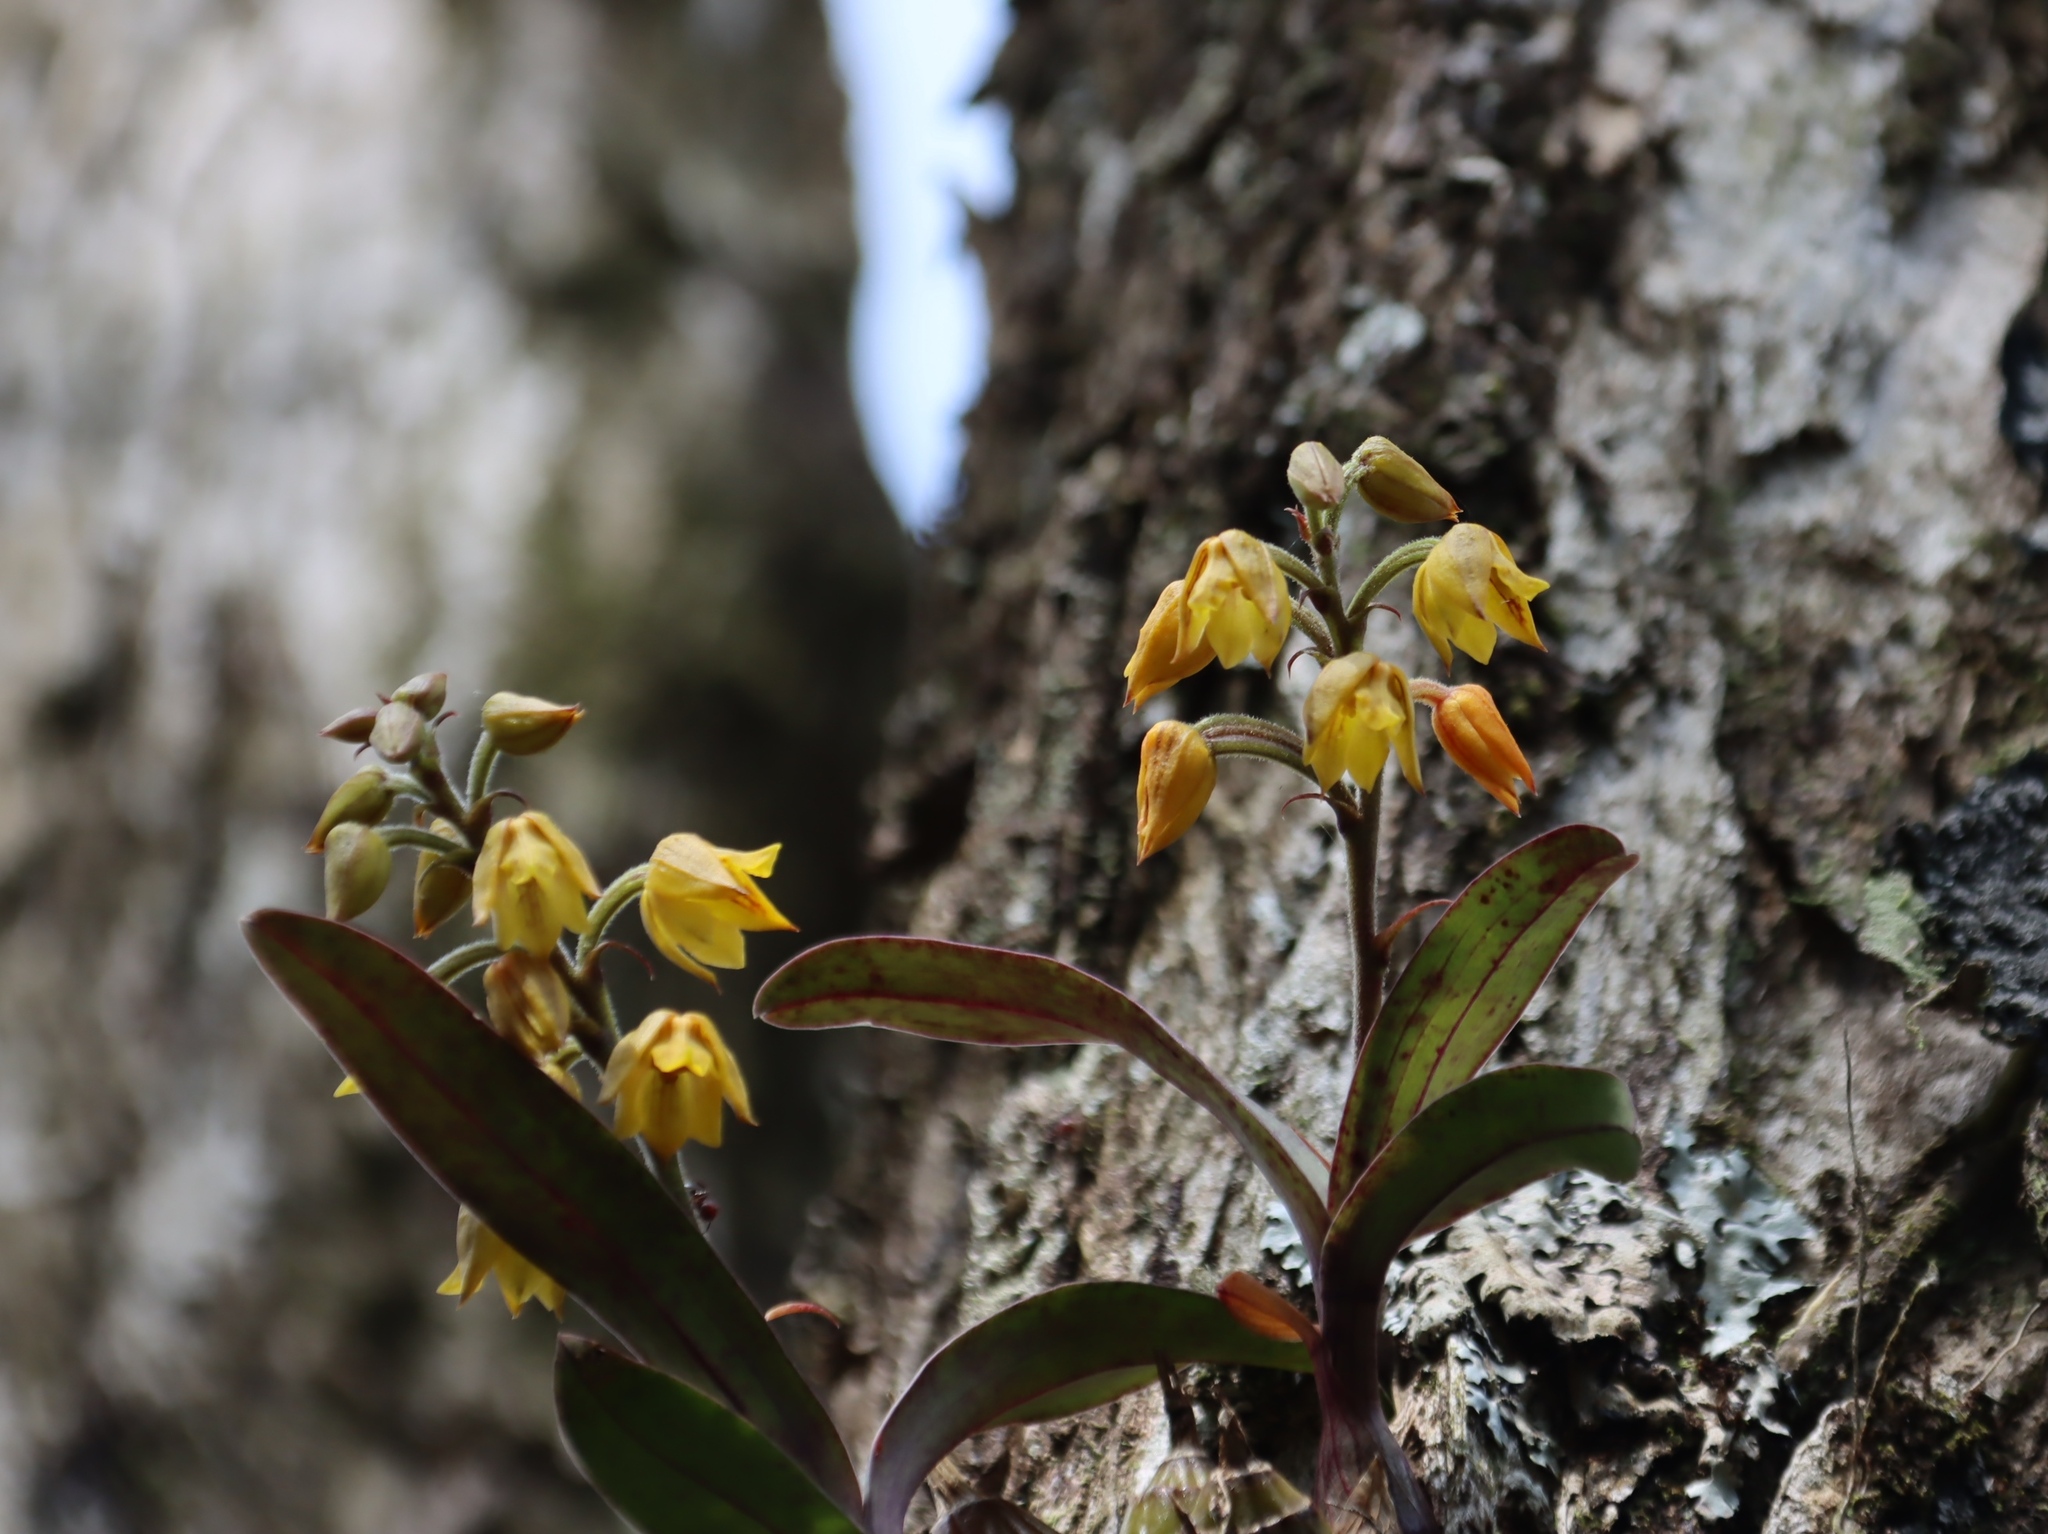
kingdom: Plantae
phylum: Tracheophyta
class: Liliopsida
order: Asparagales
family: Orchidaceae
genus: Polystachya
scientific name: Polystachya ngomensis
